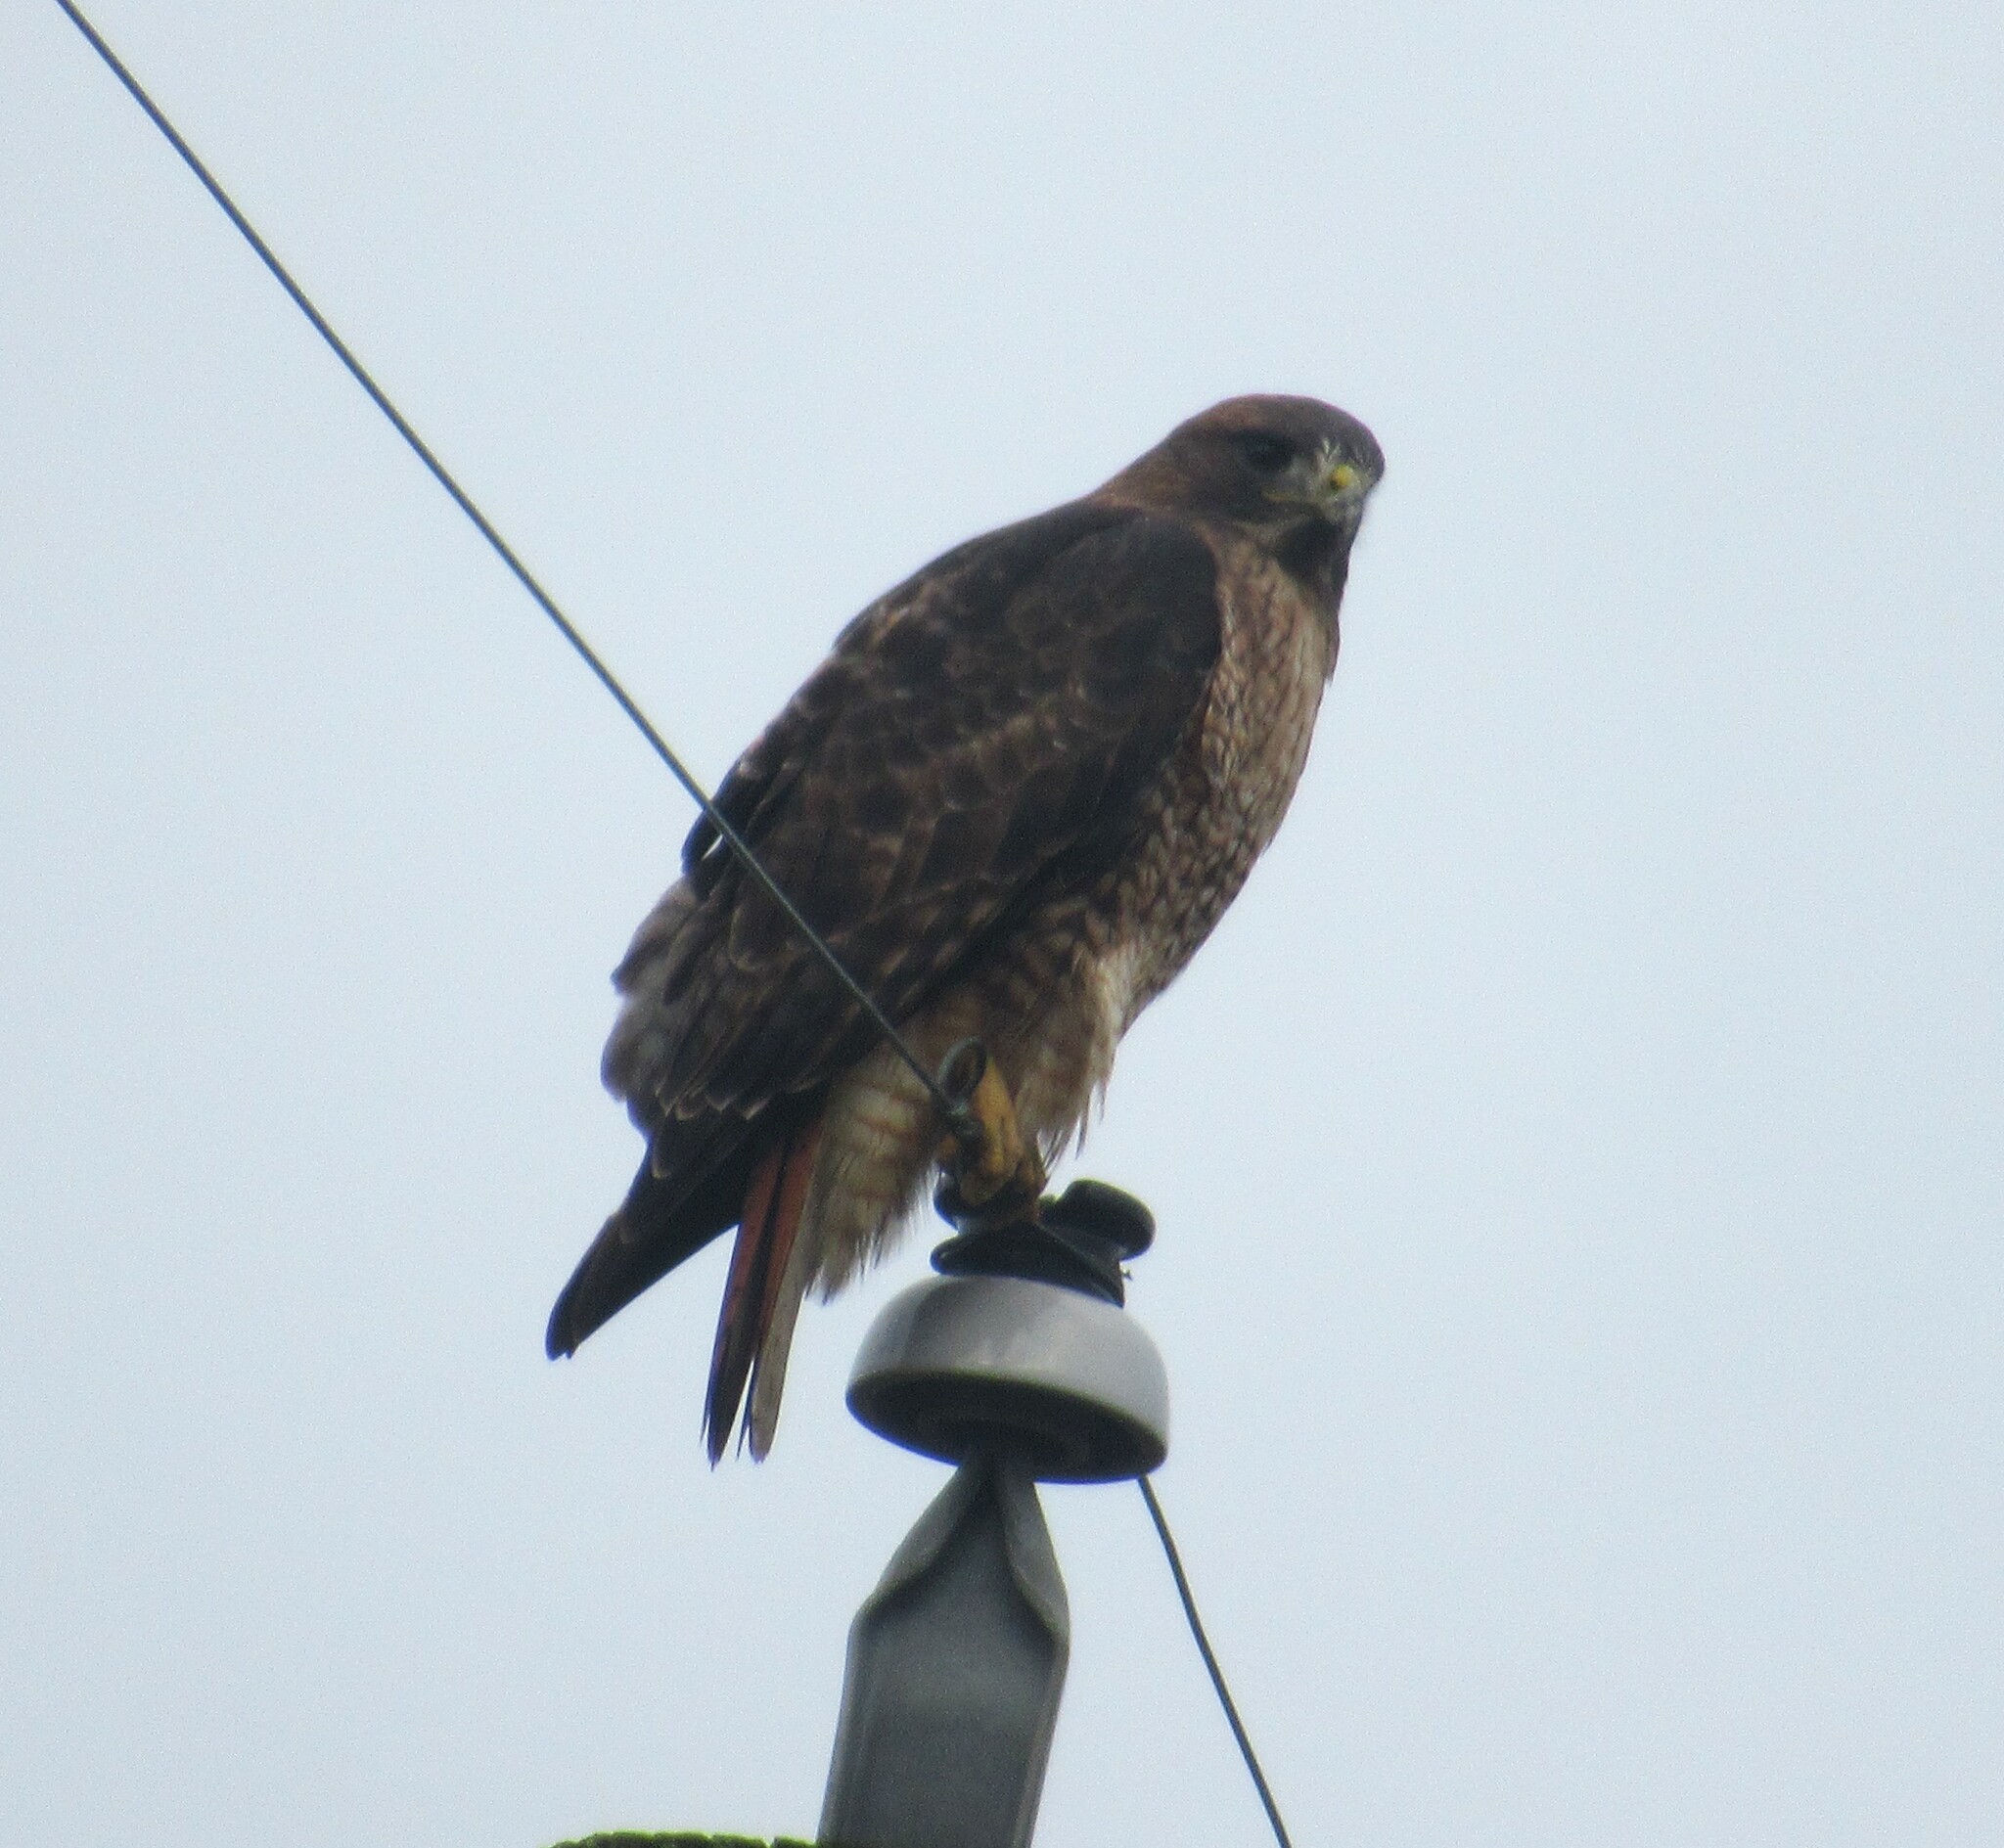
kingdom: Animalia
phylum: Chordata
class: Aves
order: Accipitriformes
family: Accipitridae
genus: Buteo
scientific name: Buteo jamaicensis
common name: Red-tailed hawk
